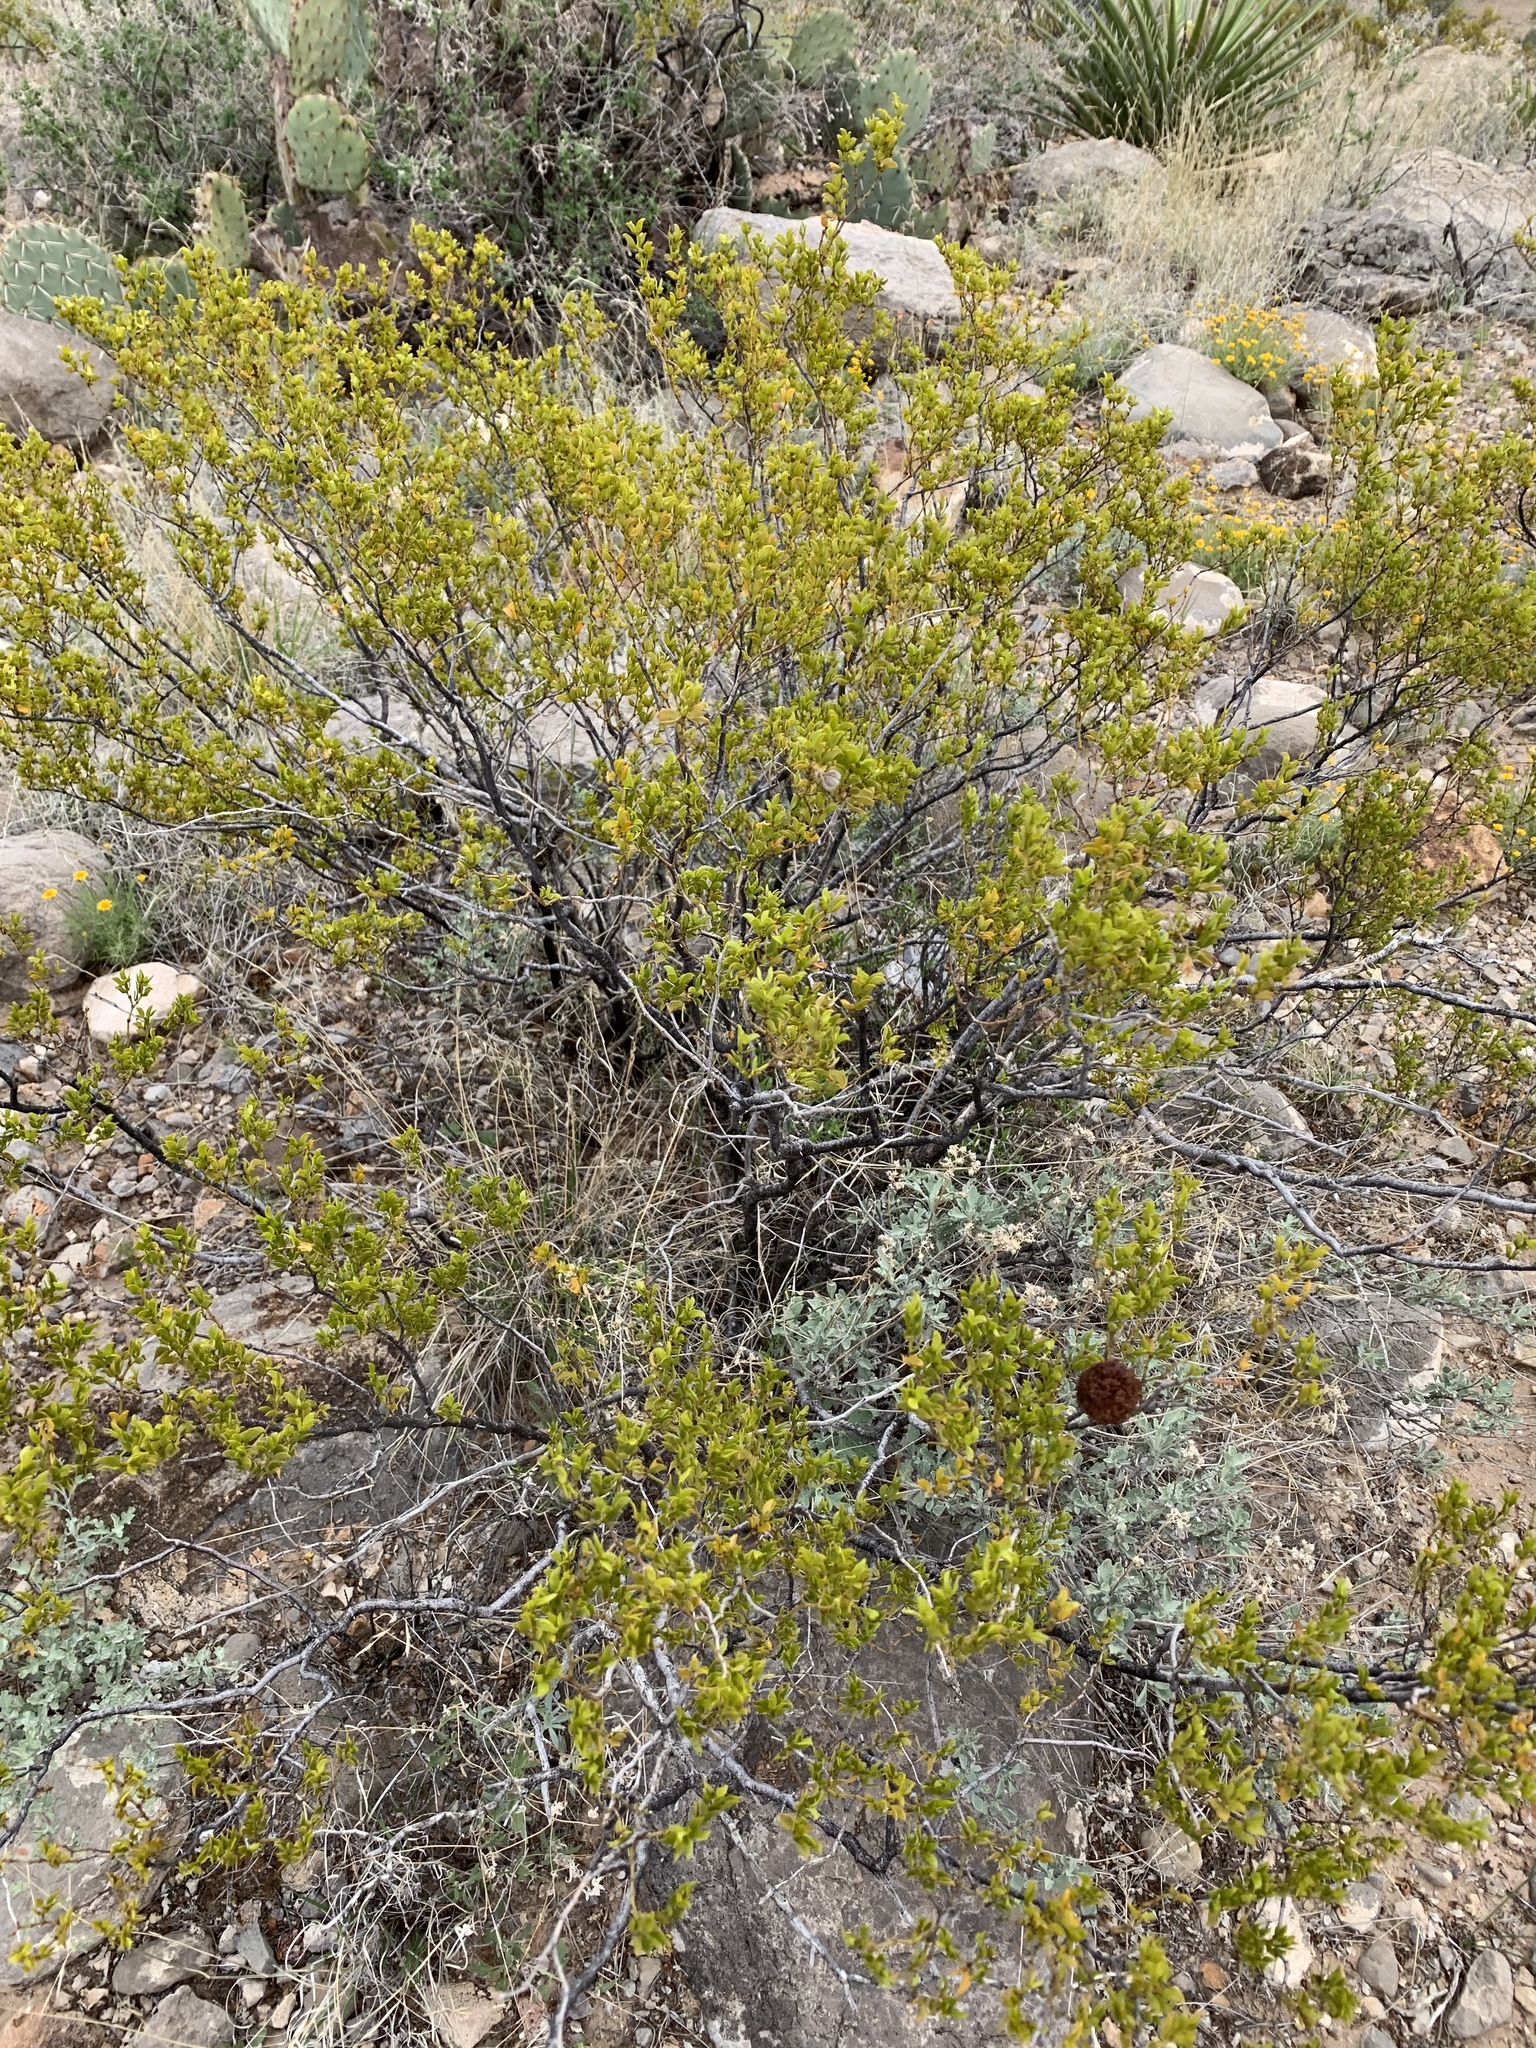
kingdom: Plantae
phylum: Tracheophyta
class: Magnoliopsida
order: Zygophyllales
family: Zygophyllaceae
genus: Larrea
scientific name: Larrea tridentata
